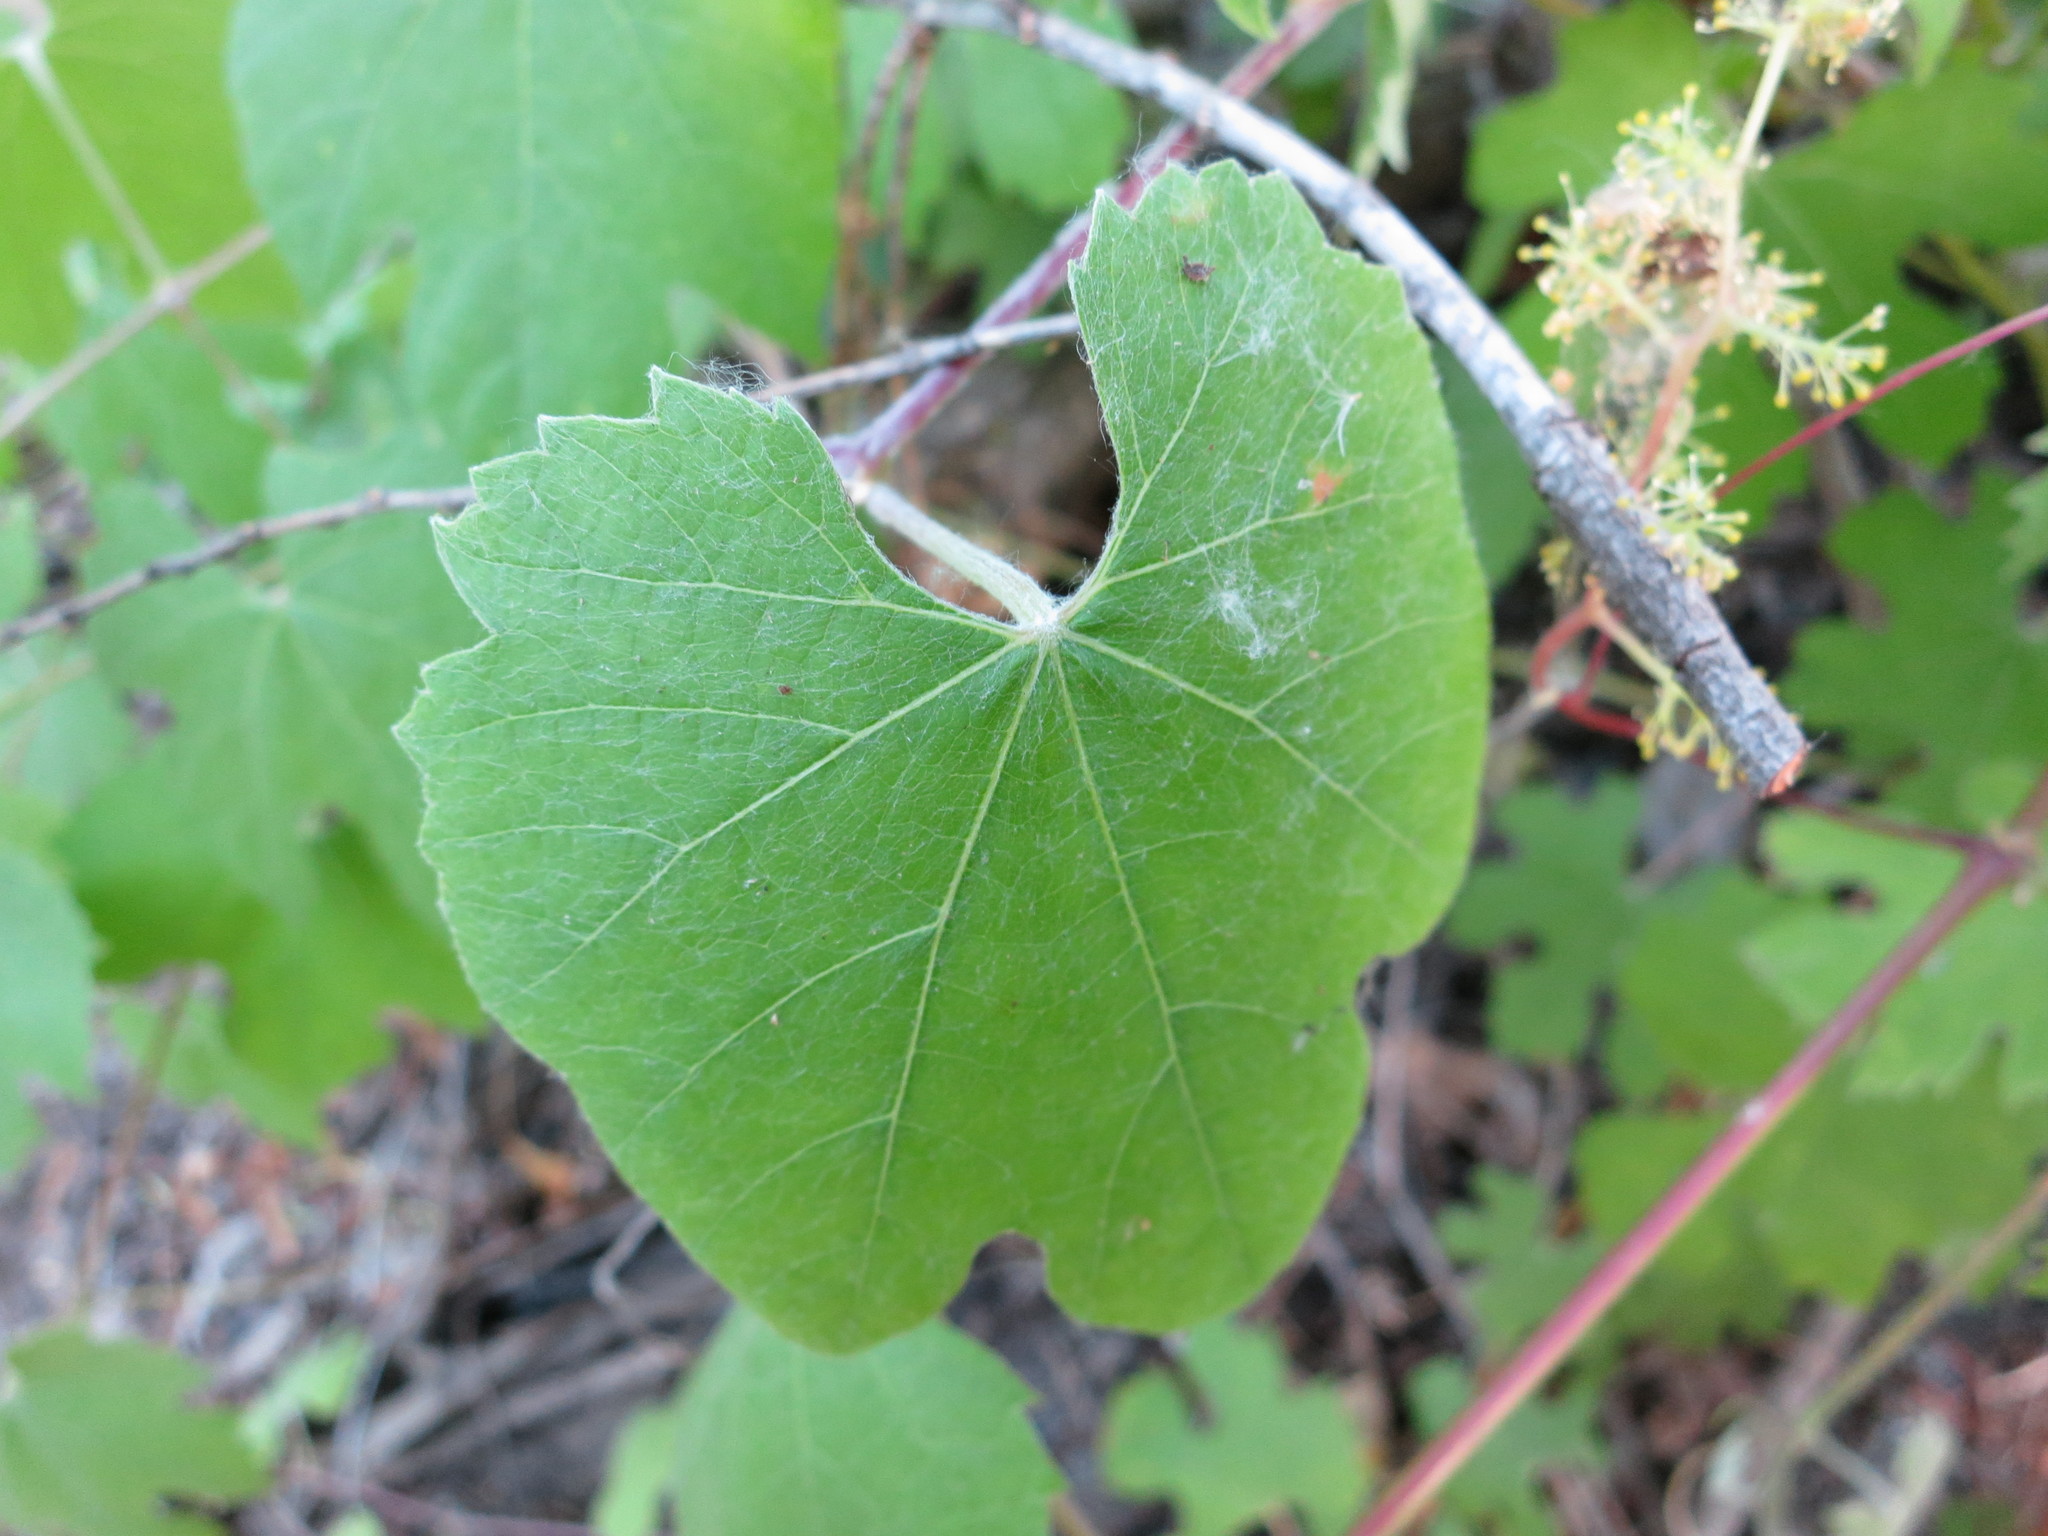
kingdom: Plantae
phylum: Tracheophyta
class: Magnoliopsida
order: Vitales
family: Vitaceae
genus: Vitis
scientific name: Vitis girdiana
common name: Desert wild grape
